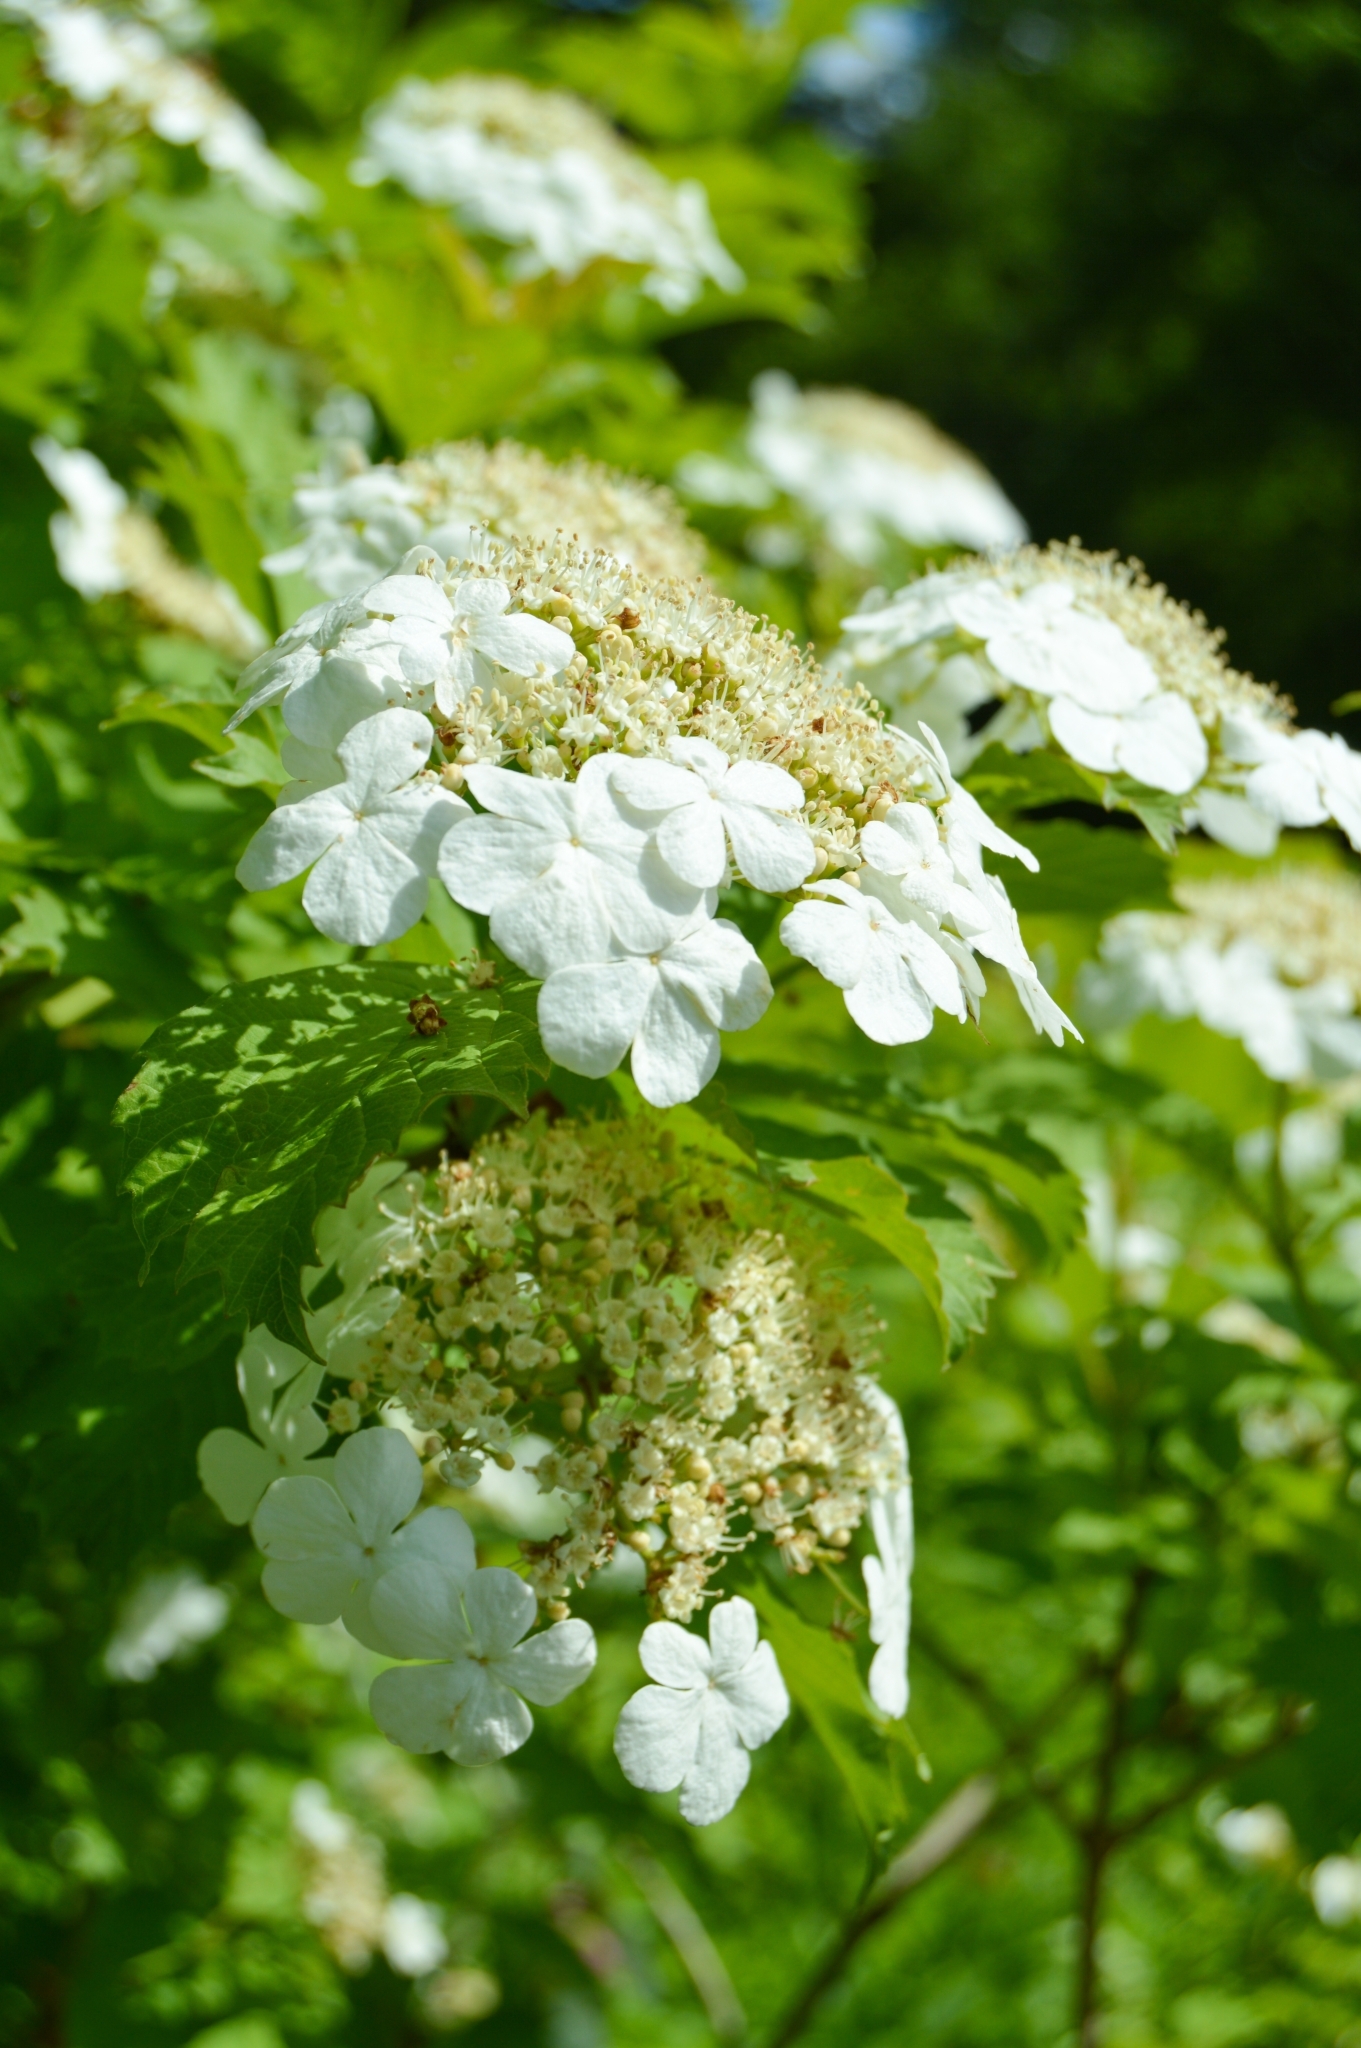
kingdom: Plantae
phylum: Tracheophyta
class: Magnoliopsida
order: Dipsacales
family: Viburnaceae
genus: Viburnum
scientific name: Viburnum opulus
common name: Guelder-rose
